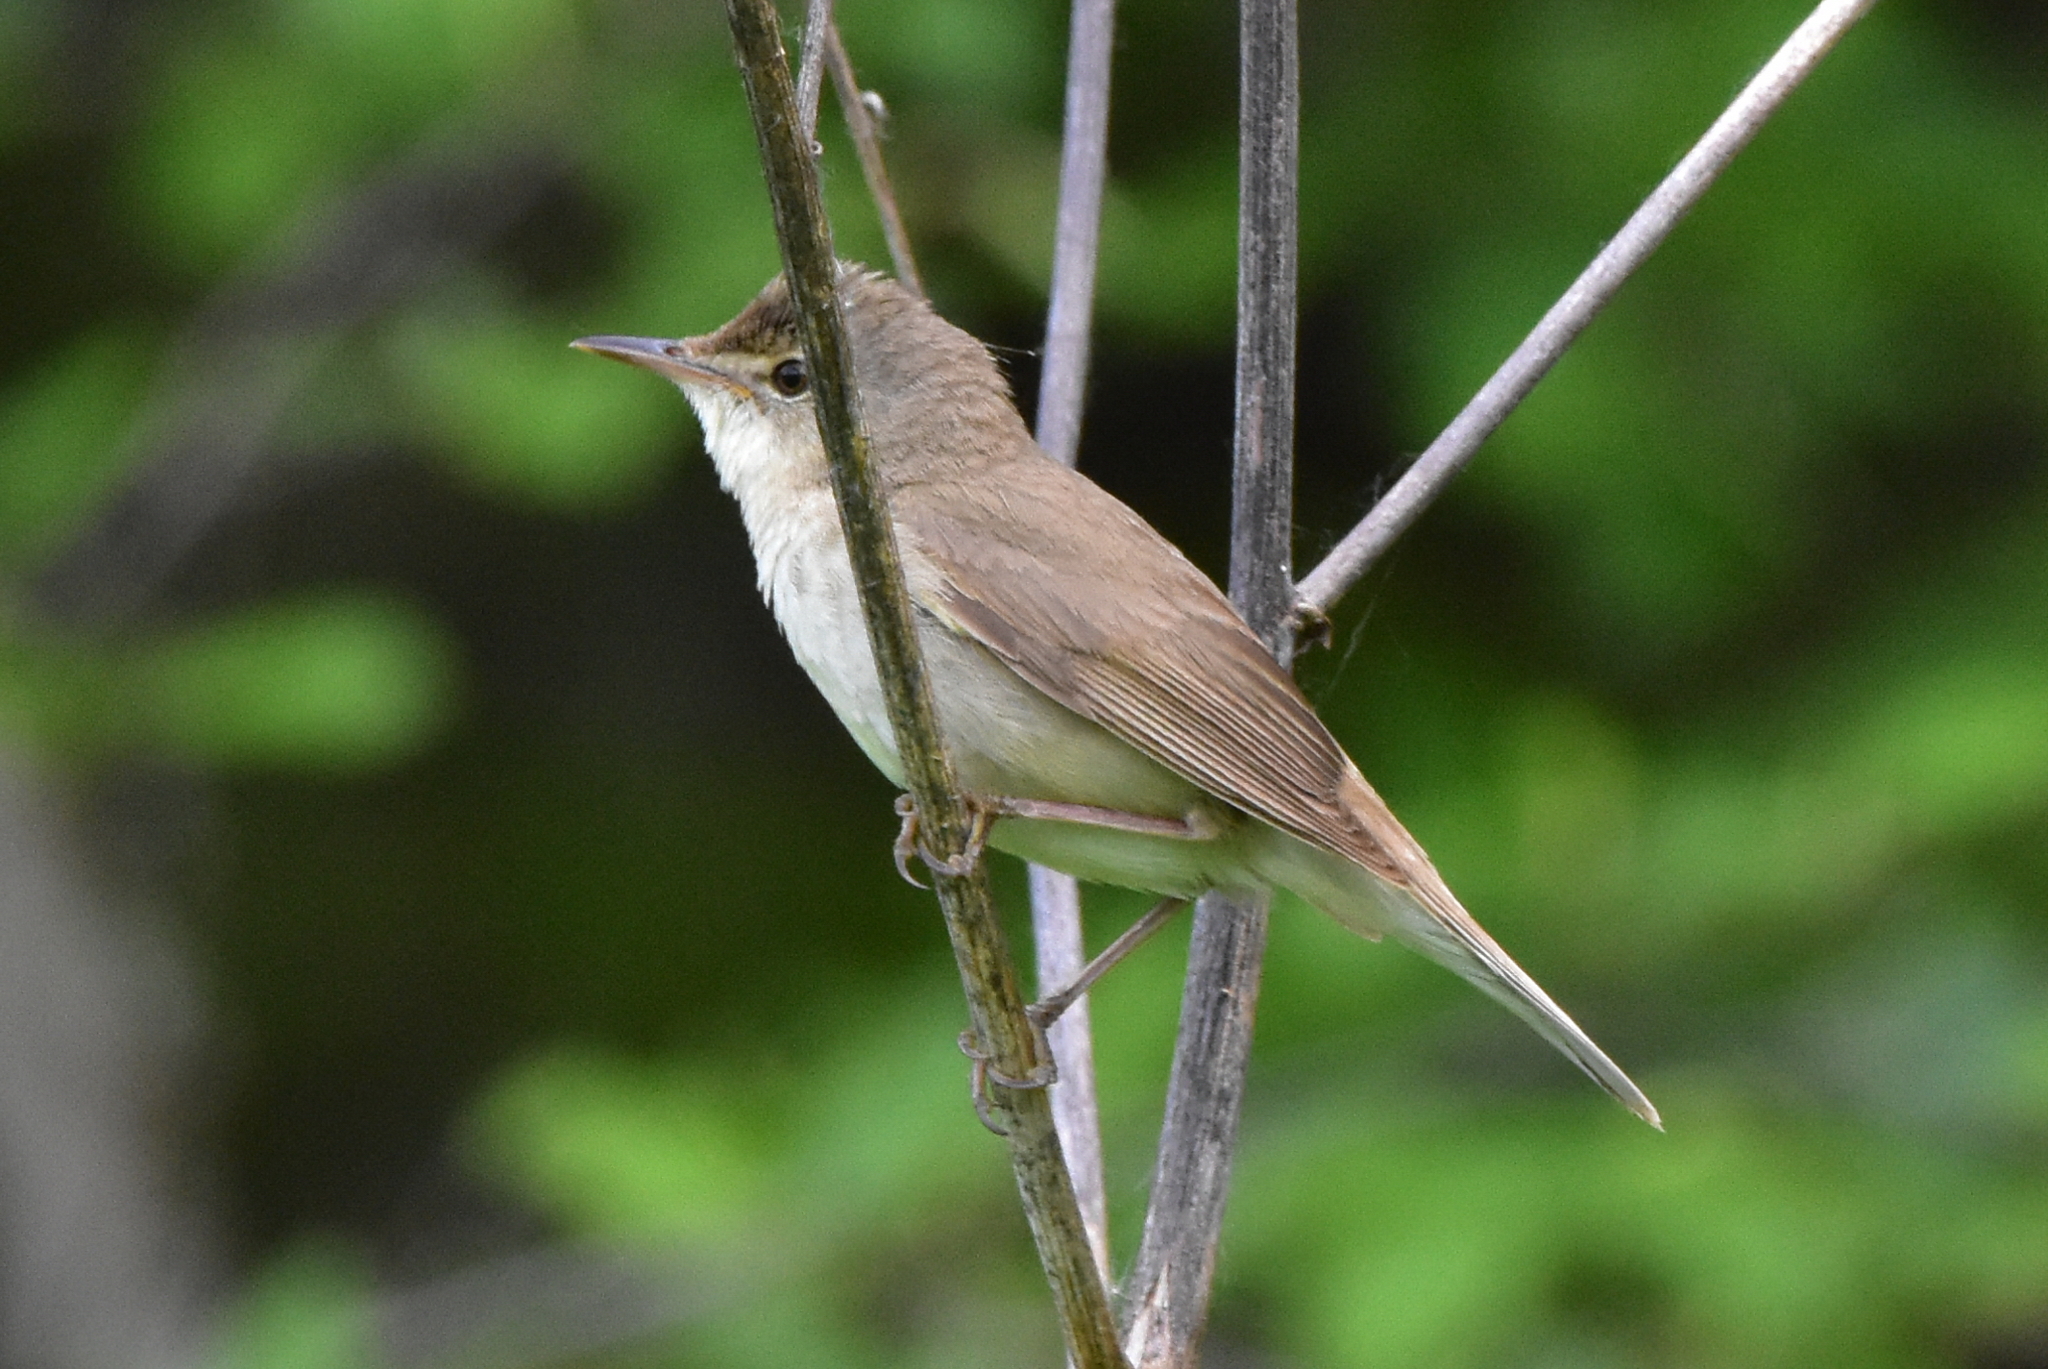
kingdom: Animalia
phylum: Chordata
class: Aves
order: Passeriformes
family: Acrocephalidae
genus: Acrocephalus
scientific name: Acrocephalus dumetorum
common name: Blyth's reed warbler
